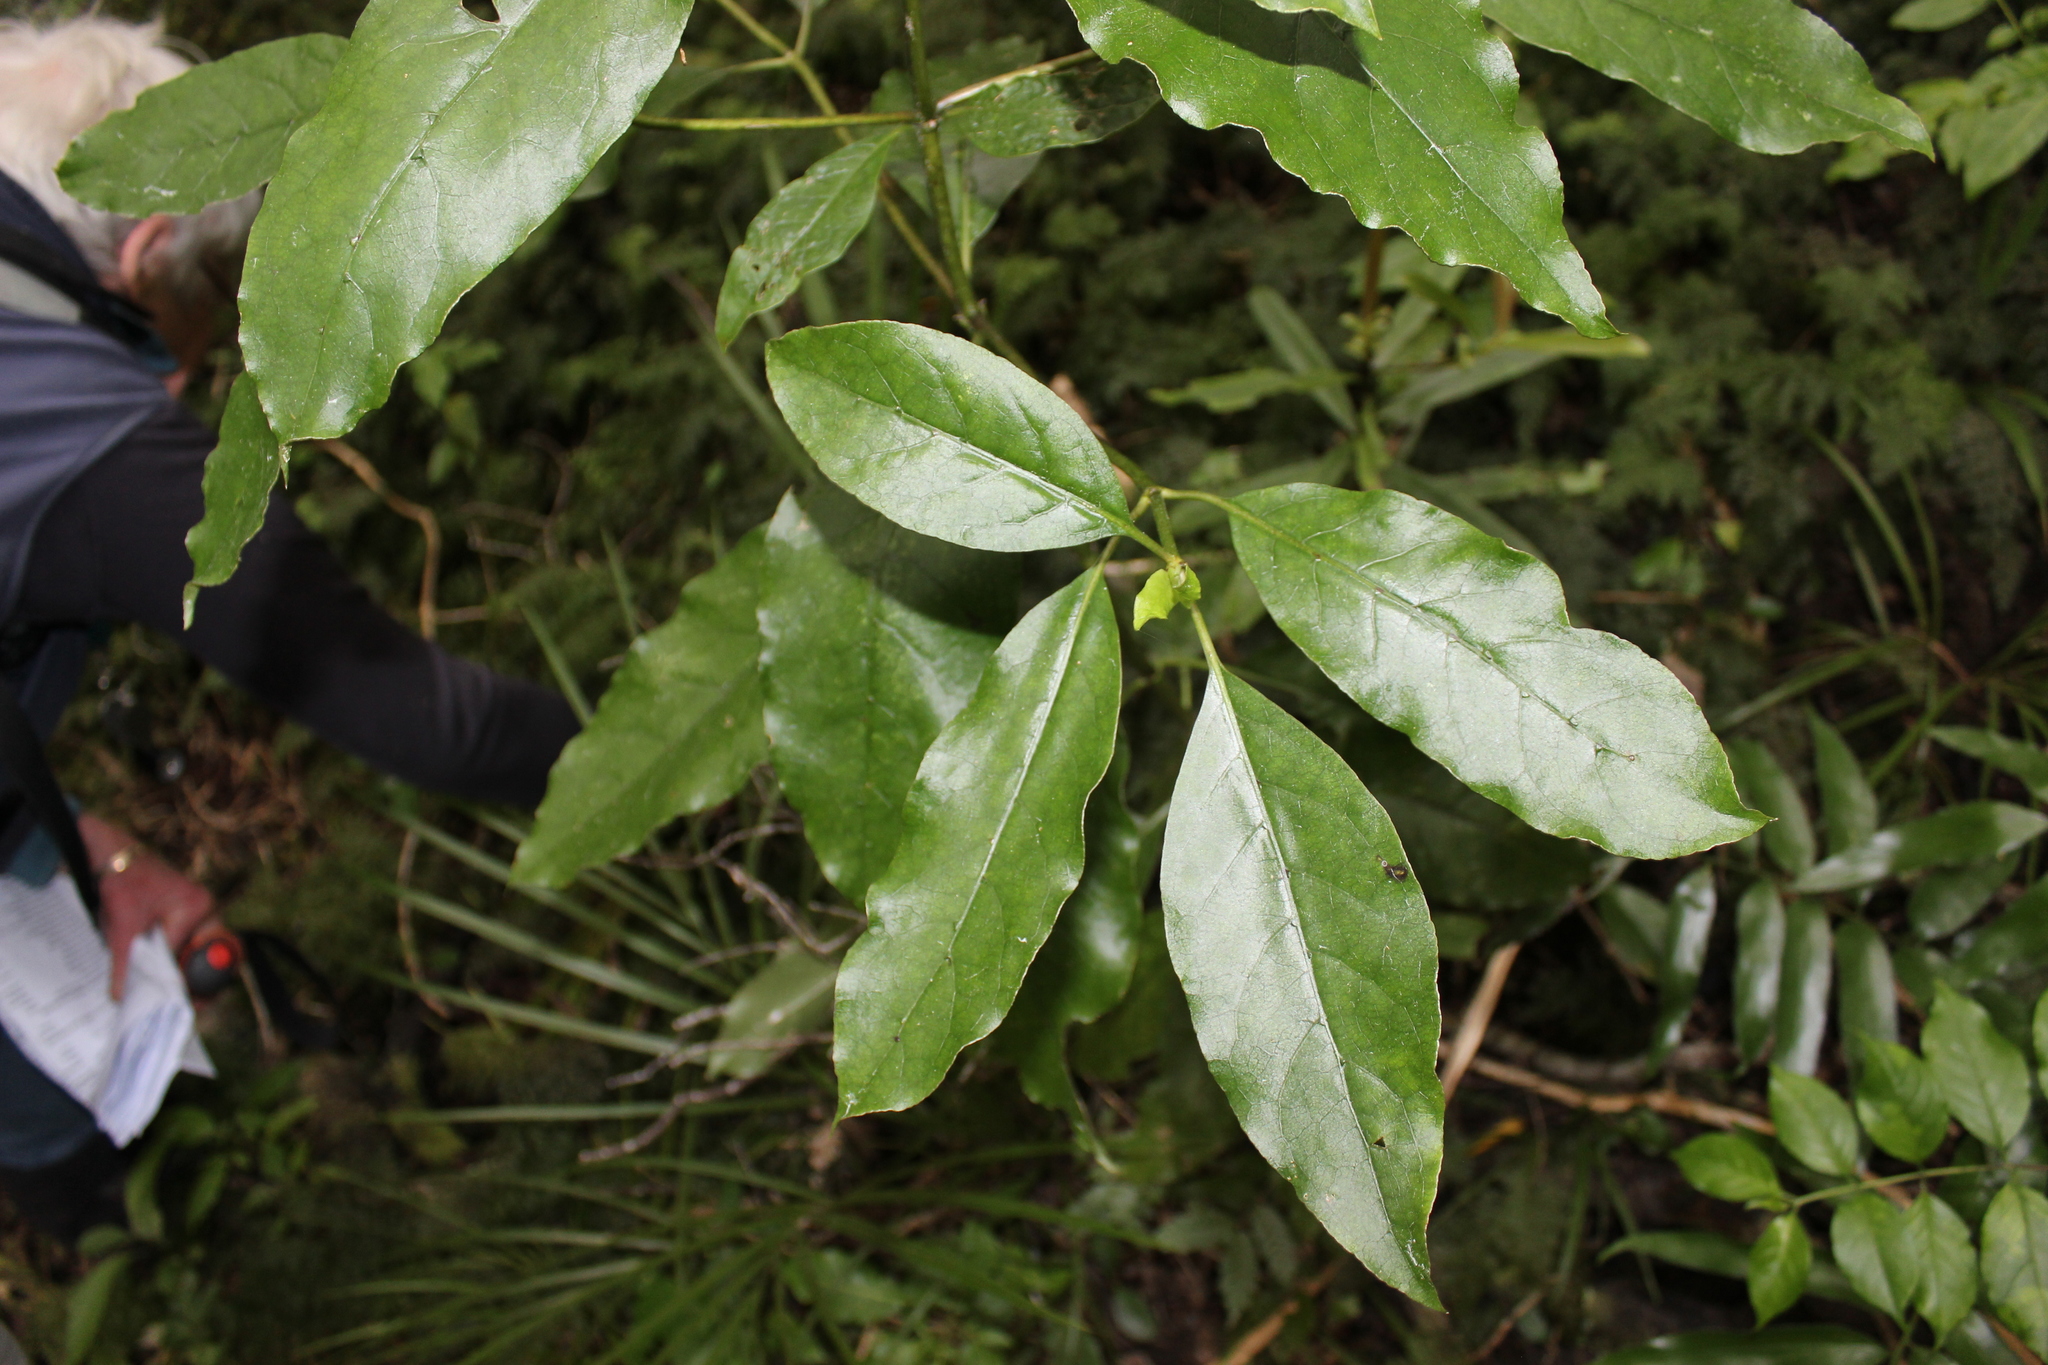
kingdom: Plantae
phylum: Tracheophyta
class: Magnoliopsida
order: Gentianales
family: Rubiaceae
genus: Coprosma
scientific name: Coprosma autumnalis
